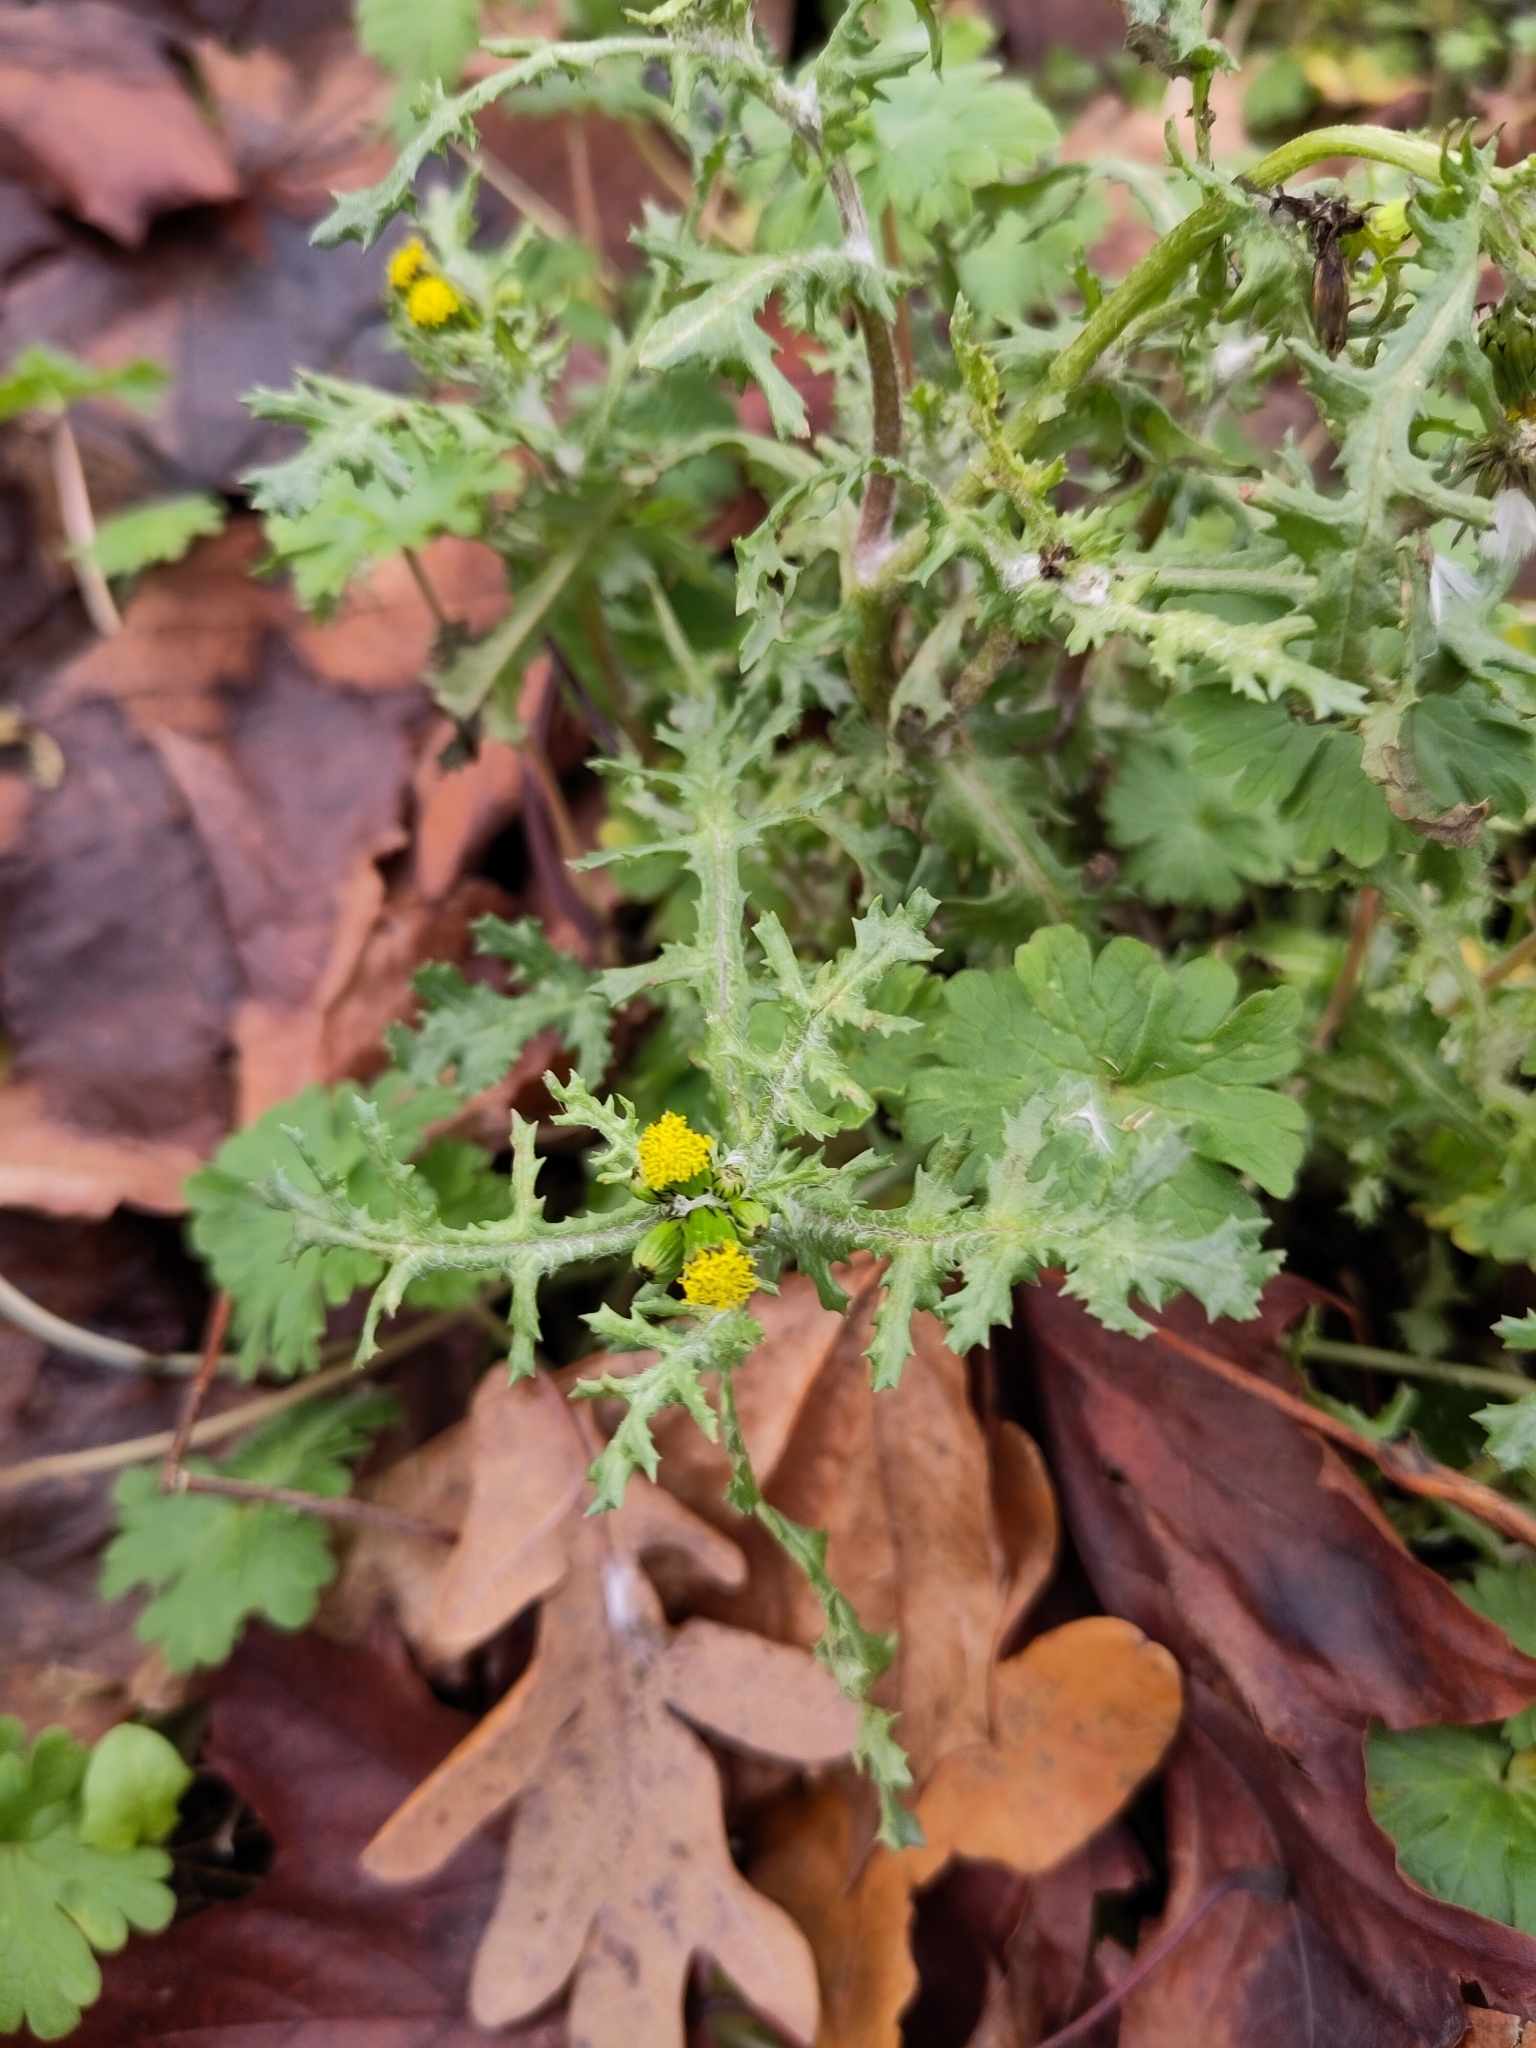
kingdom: Plantae
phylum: Tracheophyta
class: Magnoliopsida
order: Asterales
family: Asteraceae
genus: Senecio
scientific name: Senecio vulgaris
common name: Old-man-in-the-spring
